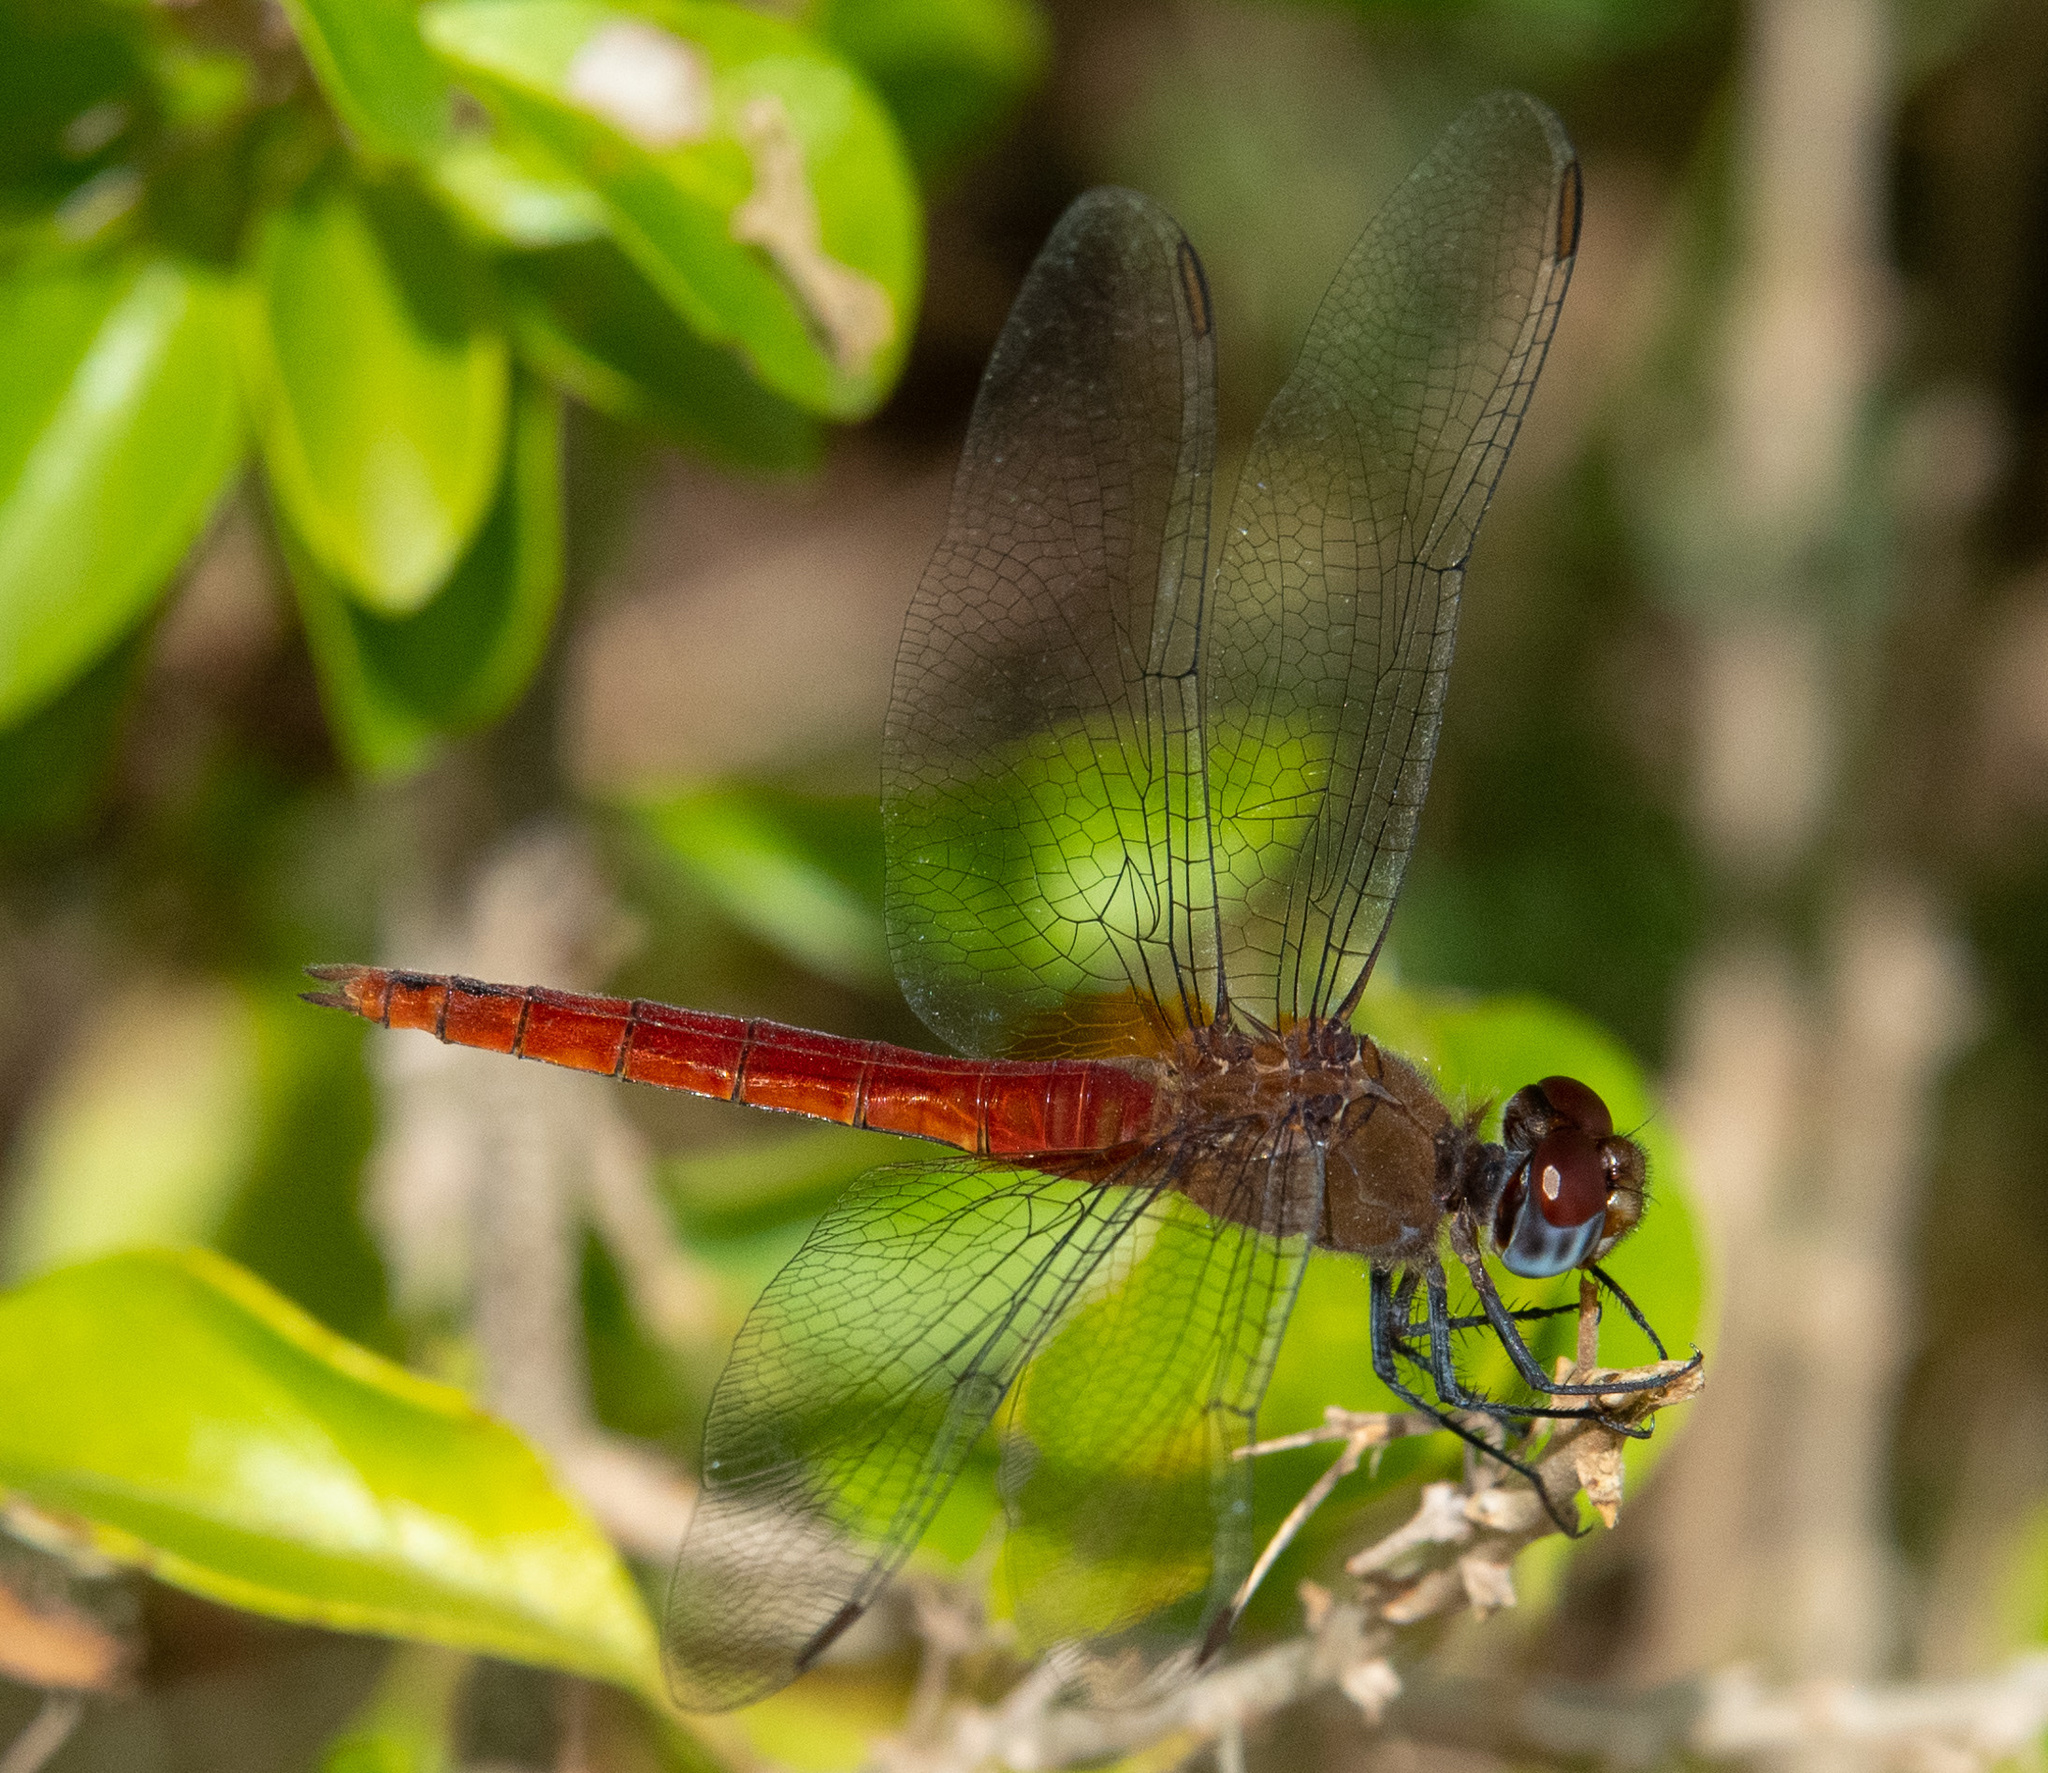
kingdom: Animalia
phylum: Arthropoda
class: Insecta
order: Odonata
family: Libellulidae
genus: Brachymesia
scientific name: Brachymesia furcata
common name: Red-taled pennant
